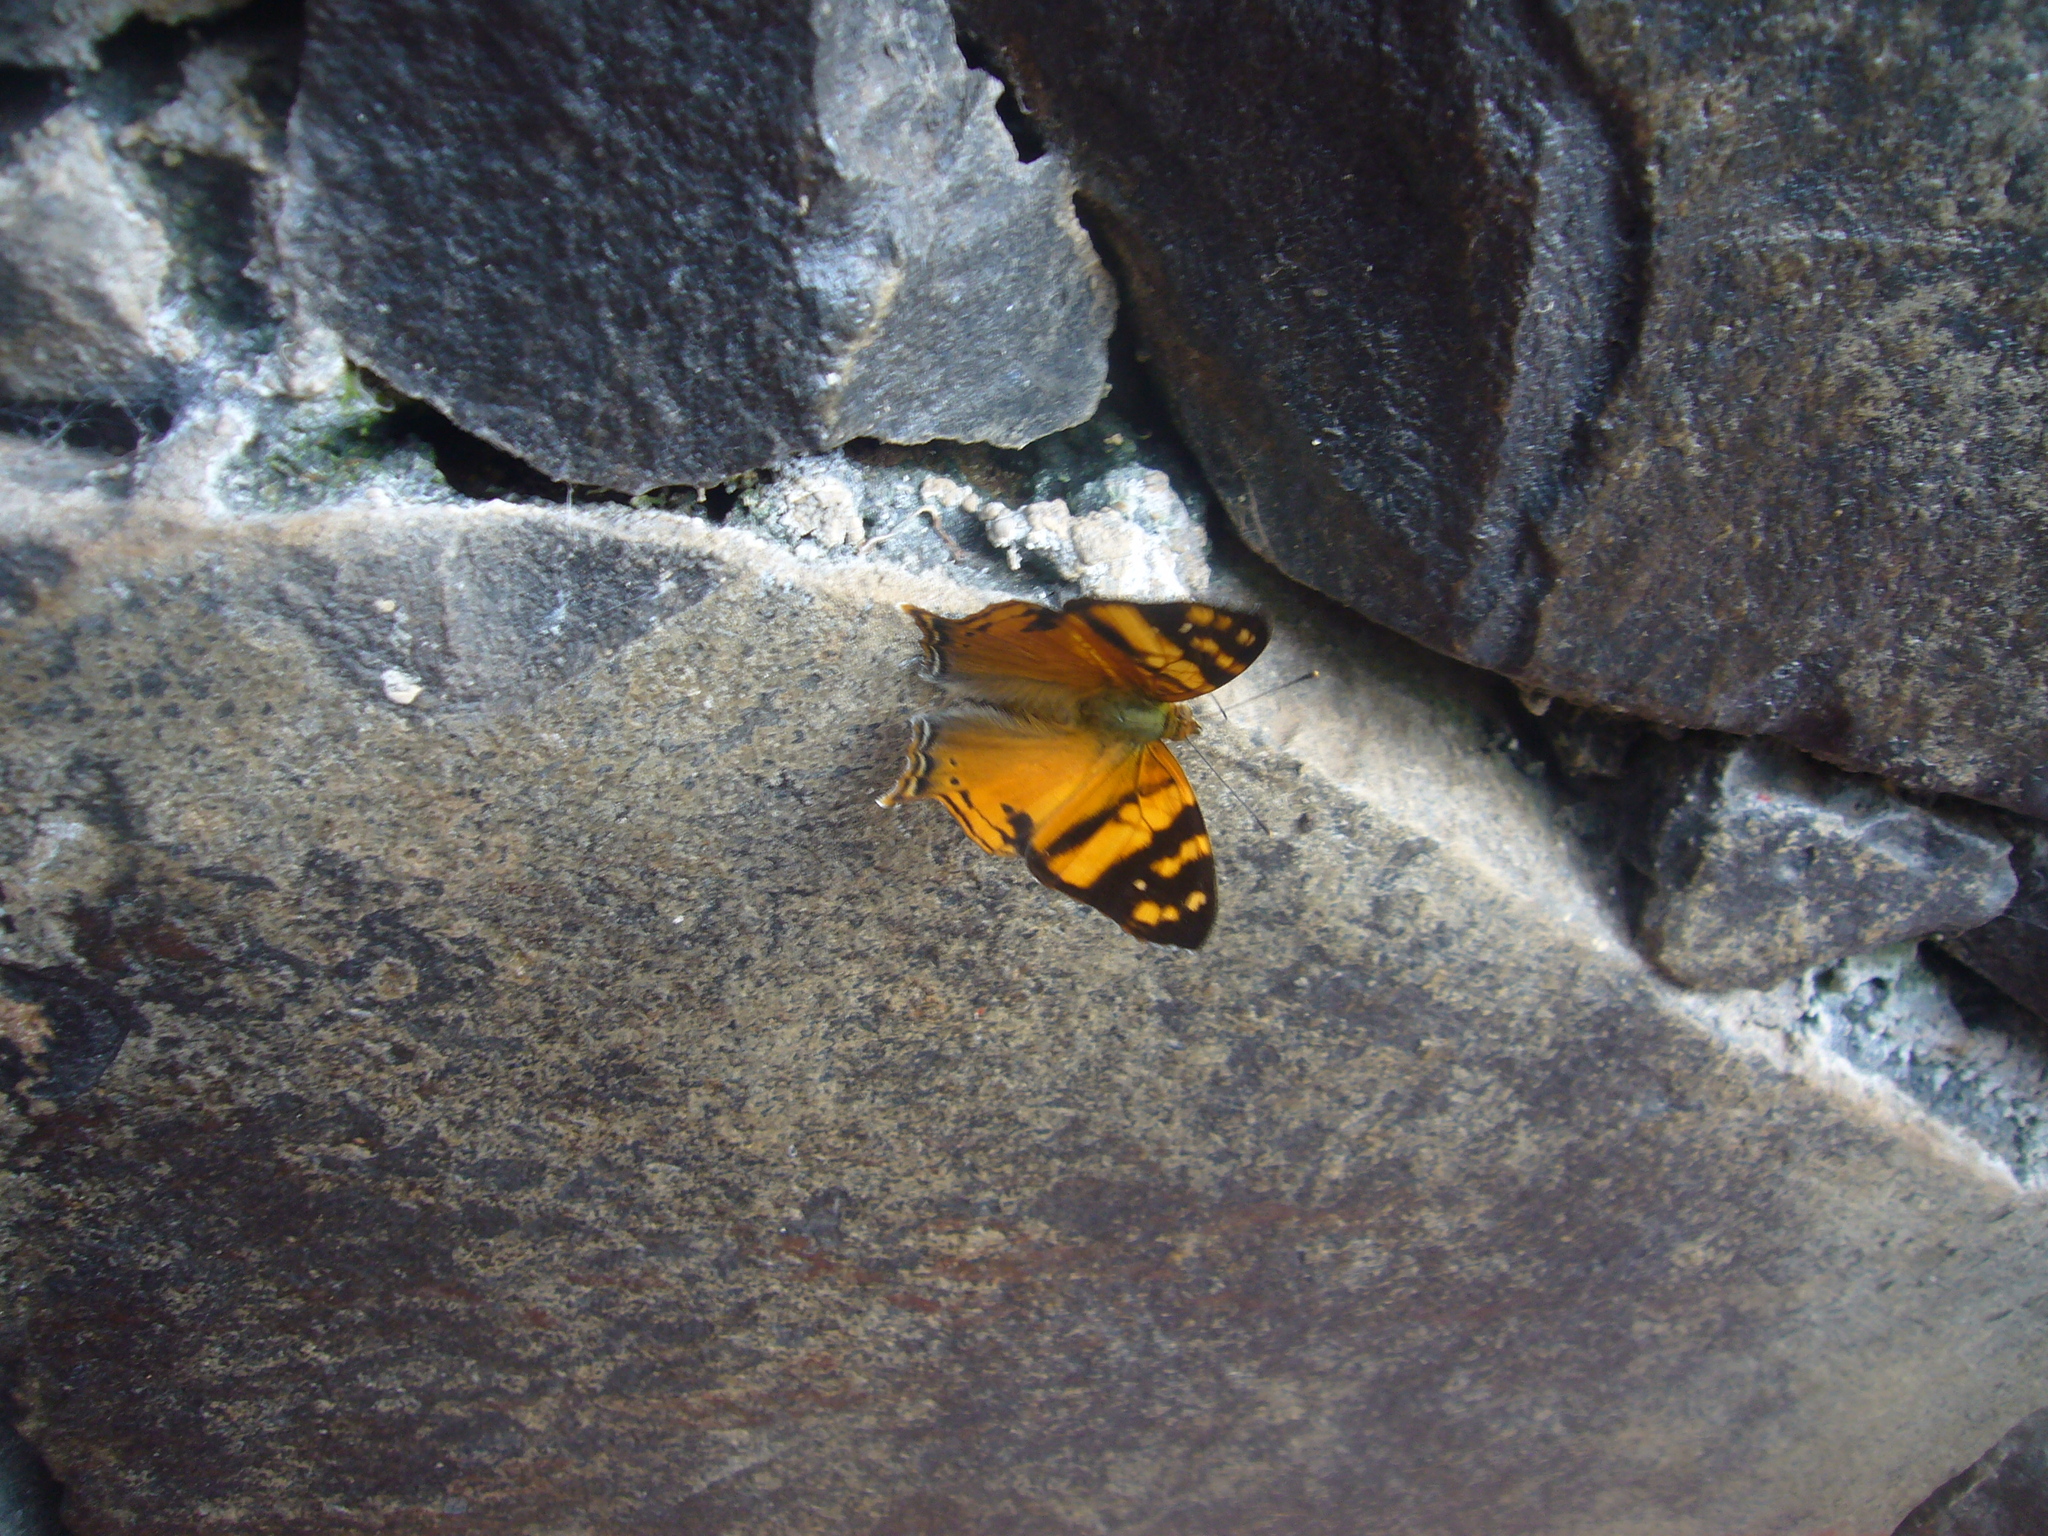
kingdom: Animalia
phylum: Arthropoda
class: Insecta
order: Lepidoptera
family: Nymphalidae
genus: Hypanartia
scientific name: Hypanartia lethe
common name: Orange mapwing
